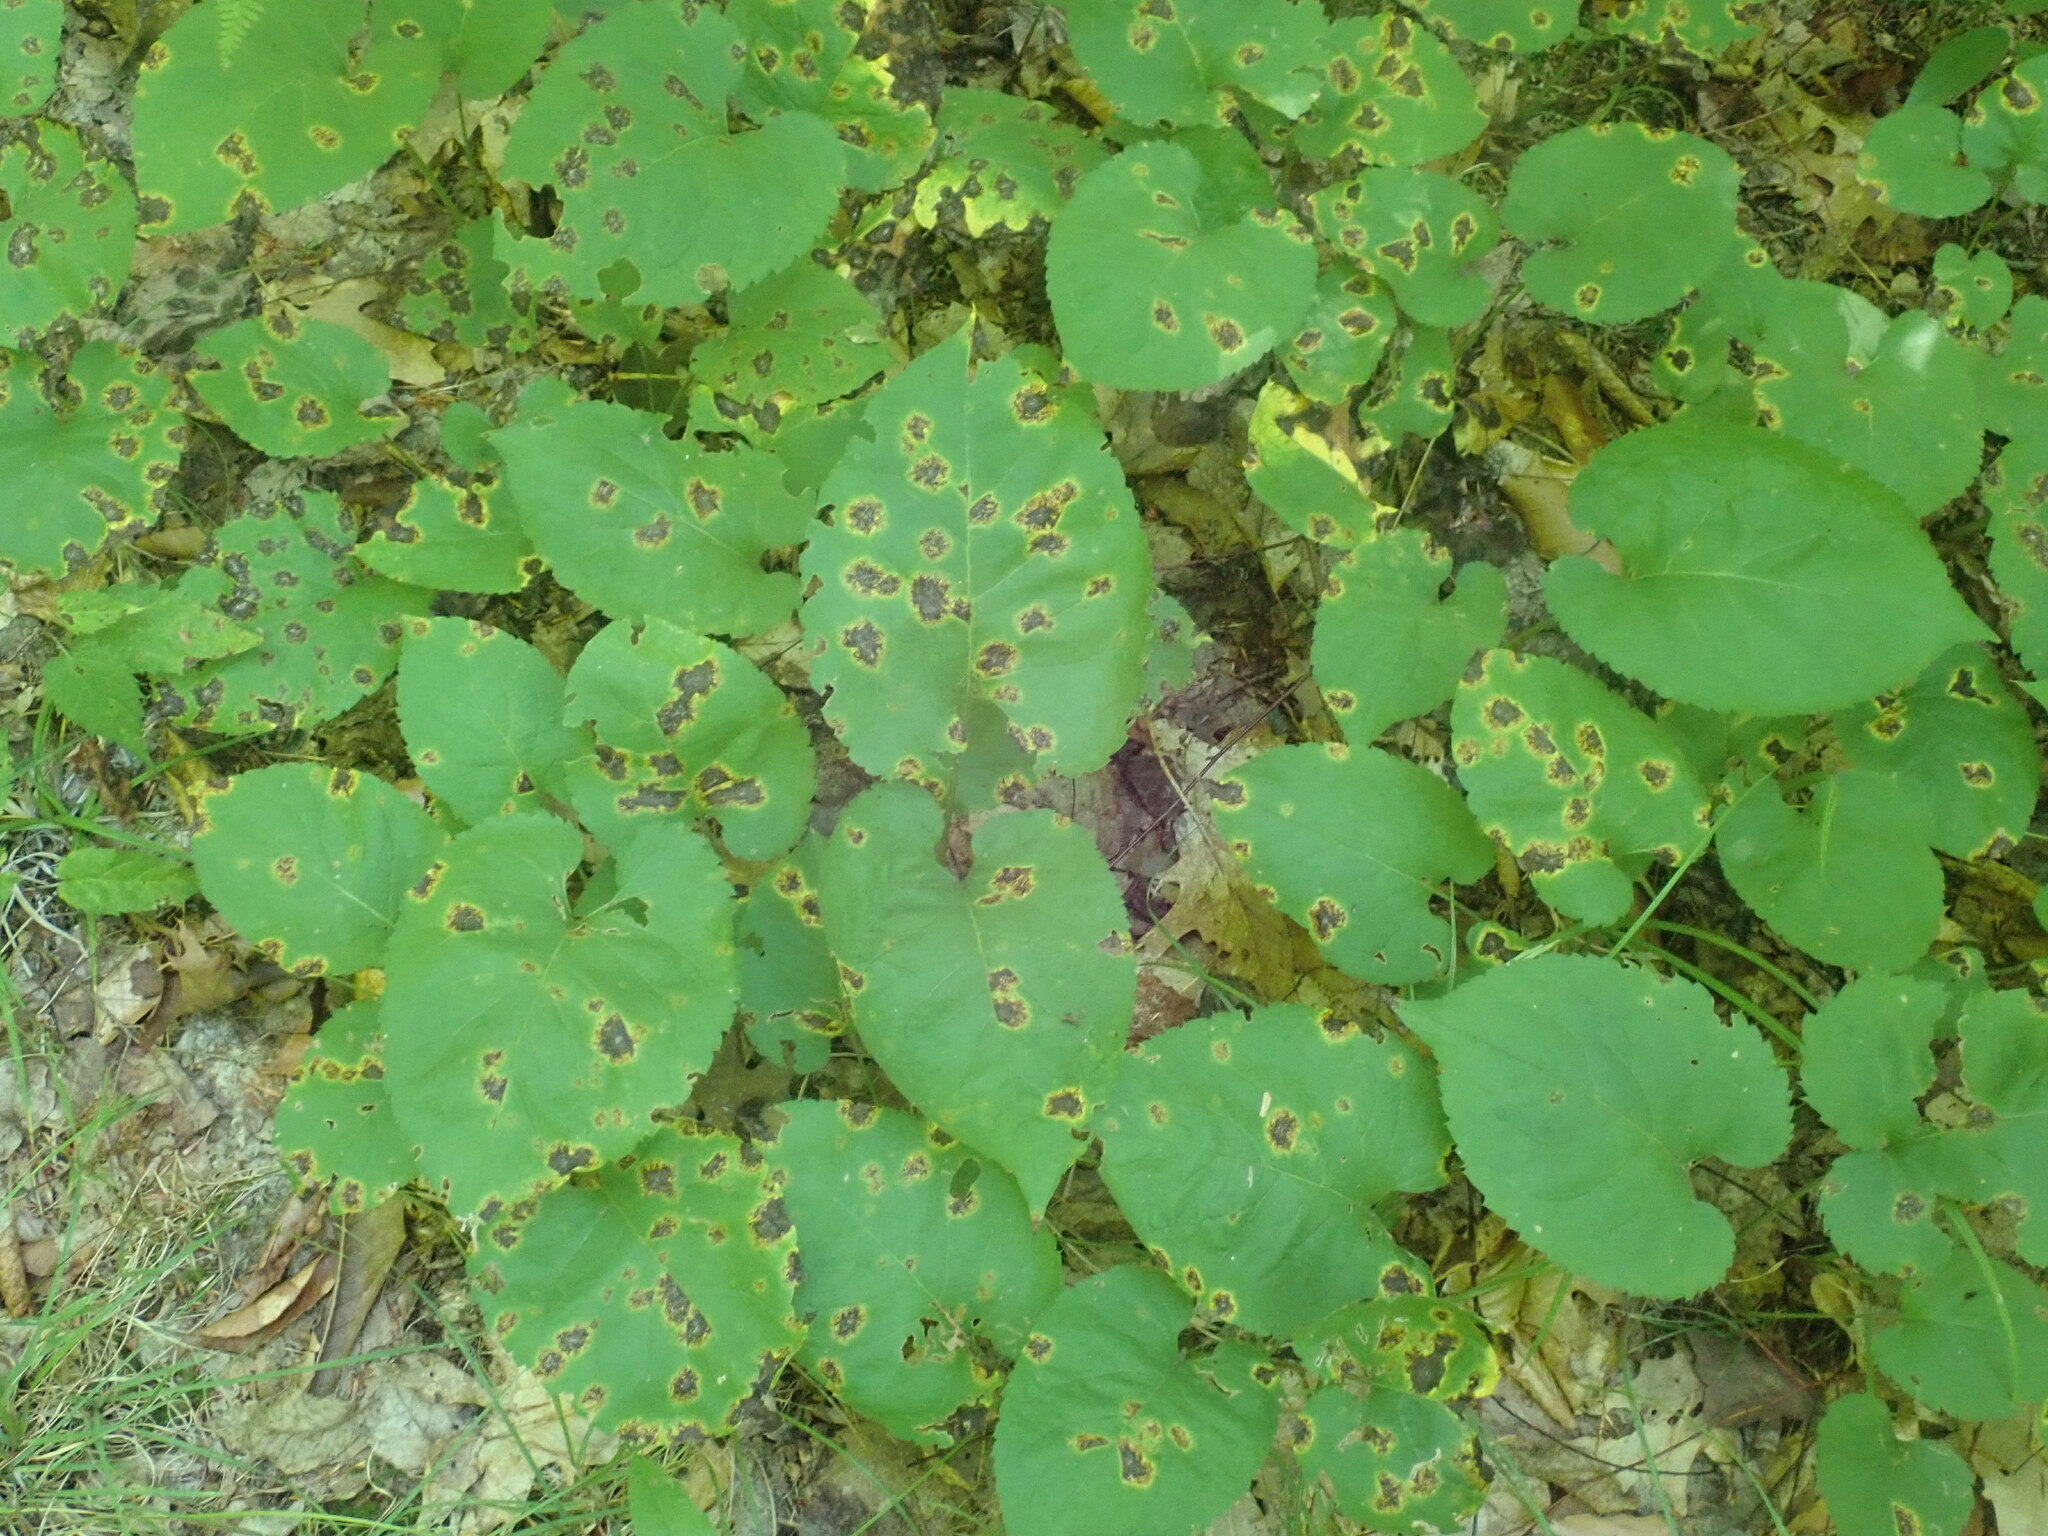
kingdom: Plantae
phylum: Tracheophyta
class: Magnoliopsida
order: Asterales
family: Asteraceae
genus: Eurybia
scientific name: Eurybia macrophylla
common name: Big-leaved aster
